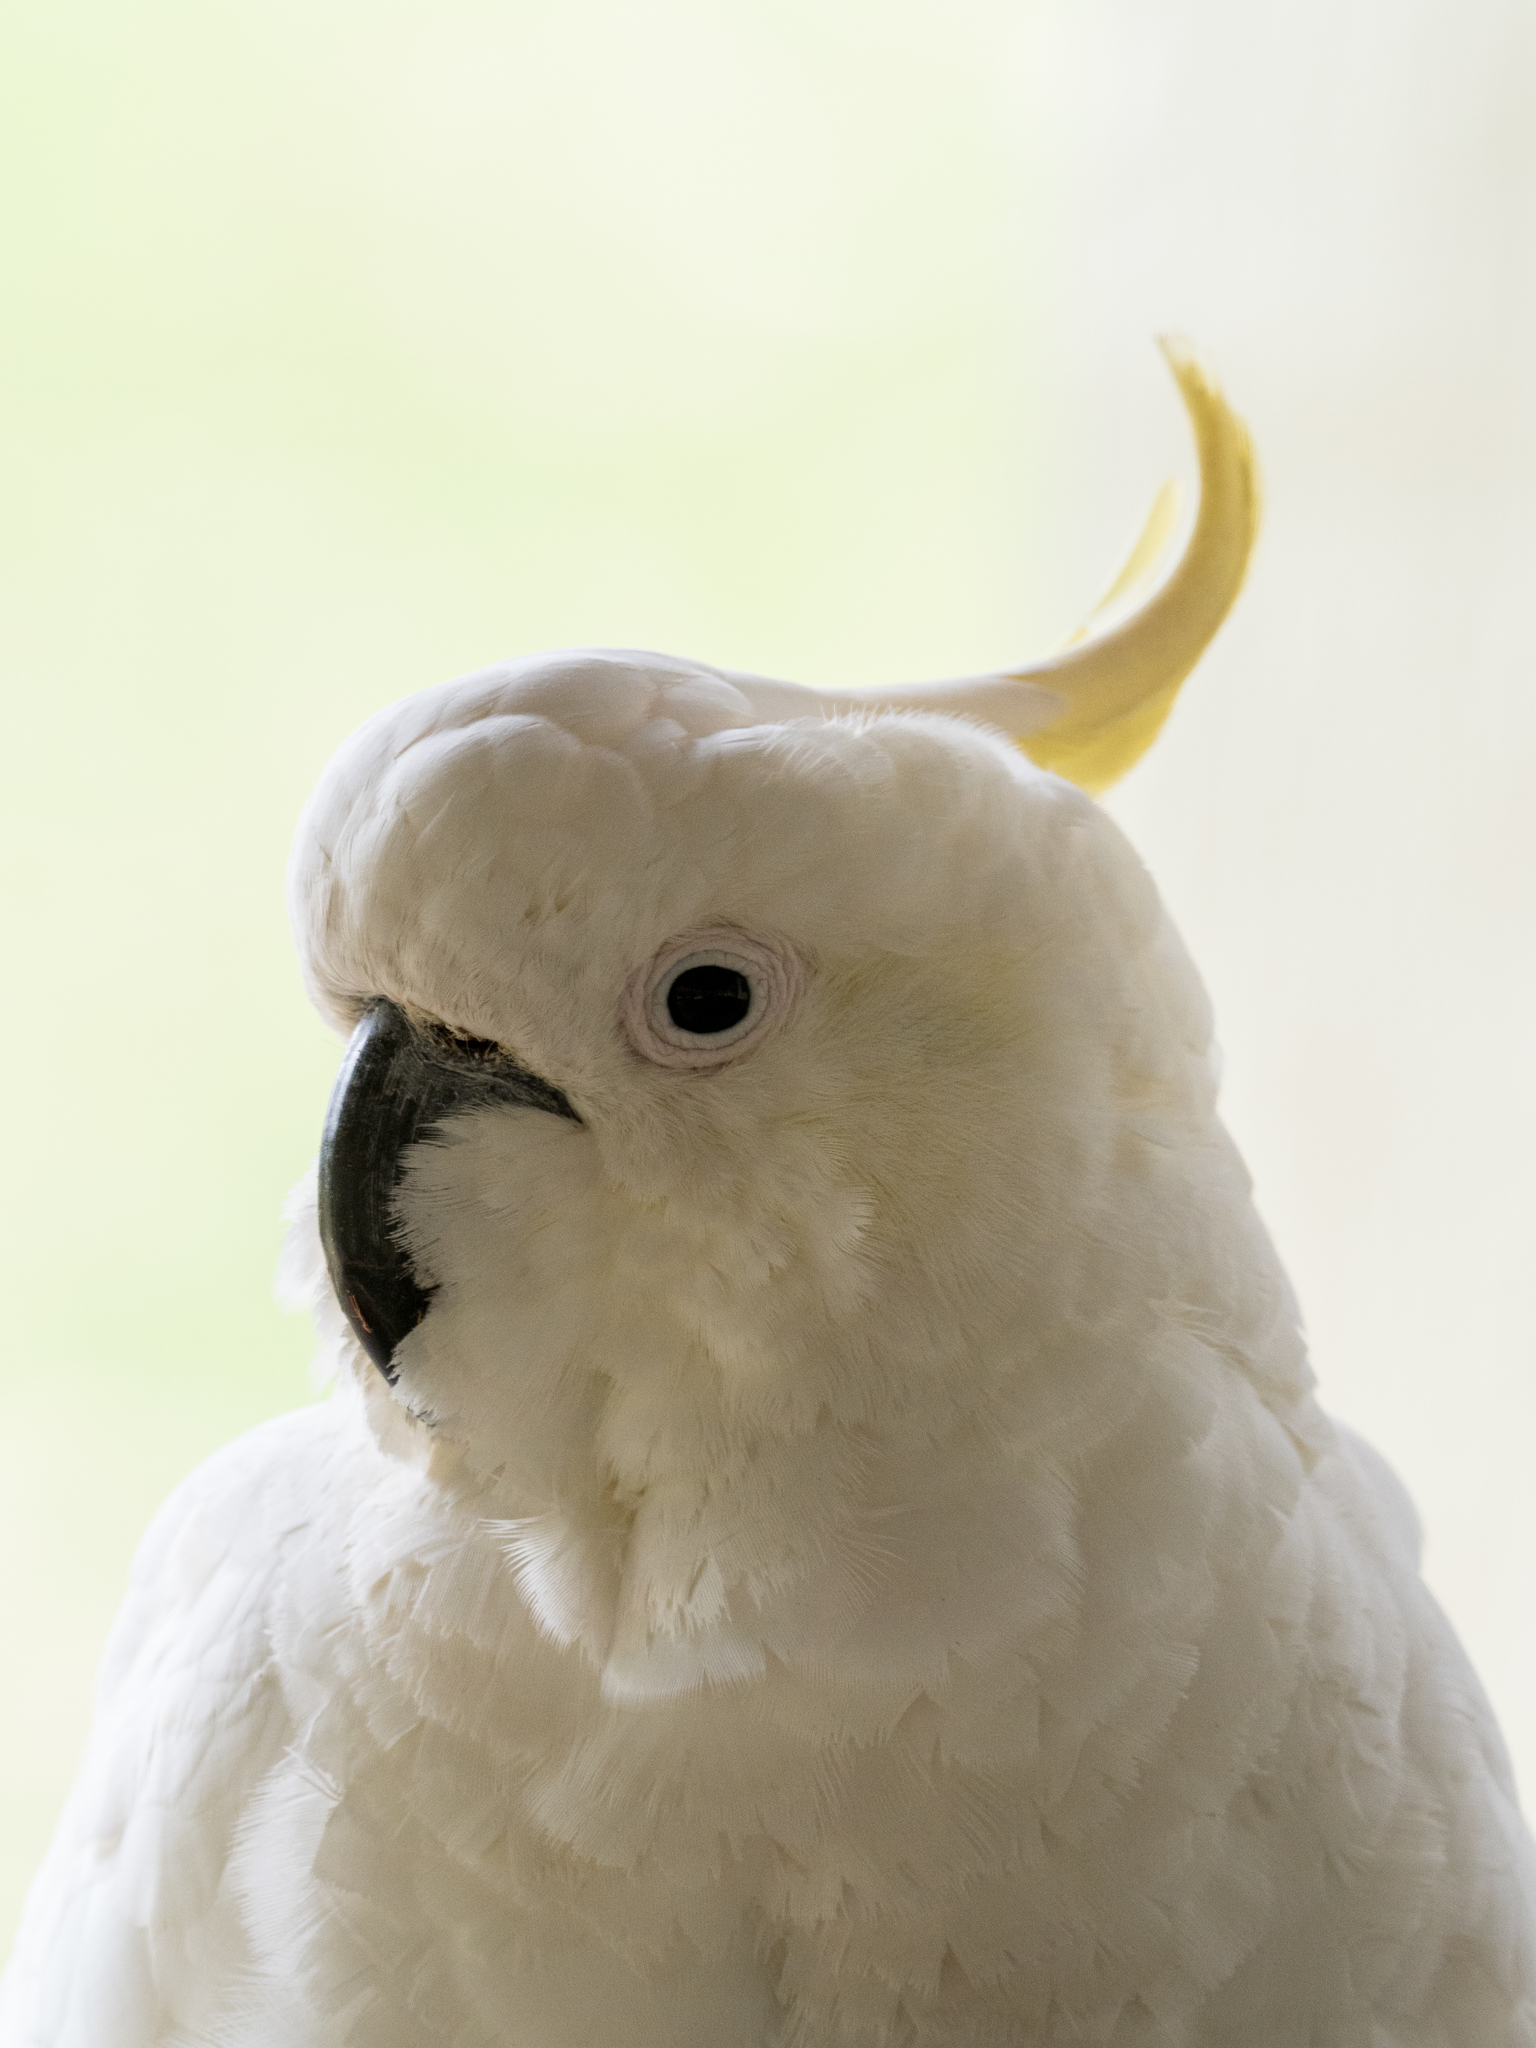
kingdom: Animalia
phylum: Chordata
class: Aves
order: Psittaciformes
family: Psittacidae
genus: Cacatua
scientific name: Cacatua galerita
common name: Sulphur-crested cockatoo
